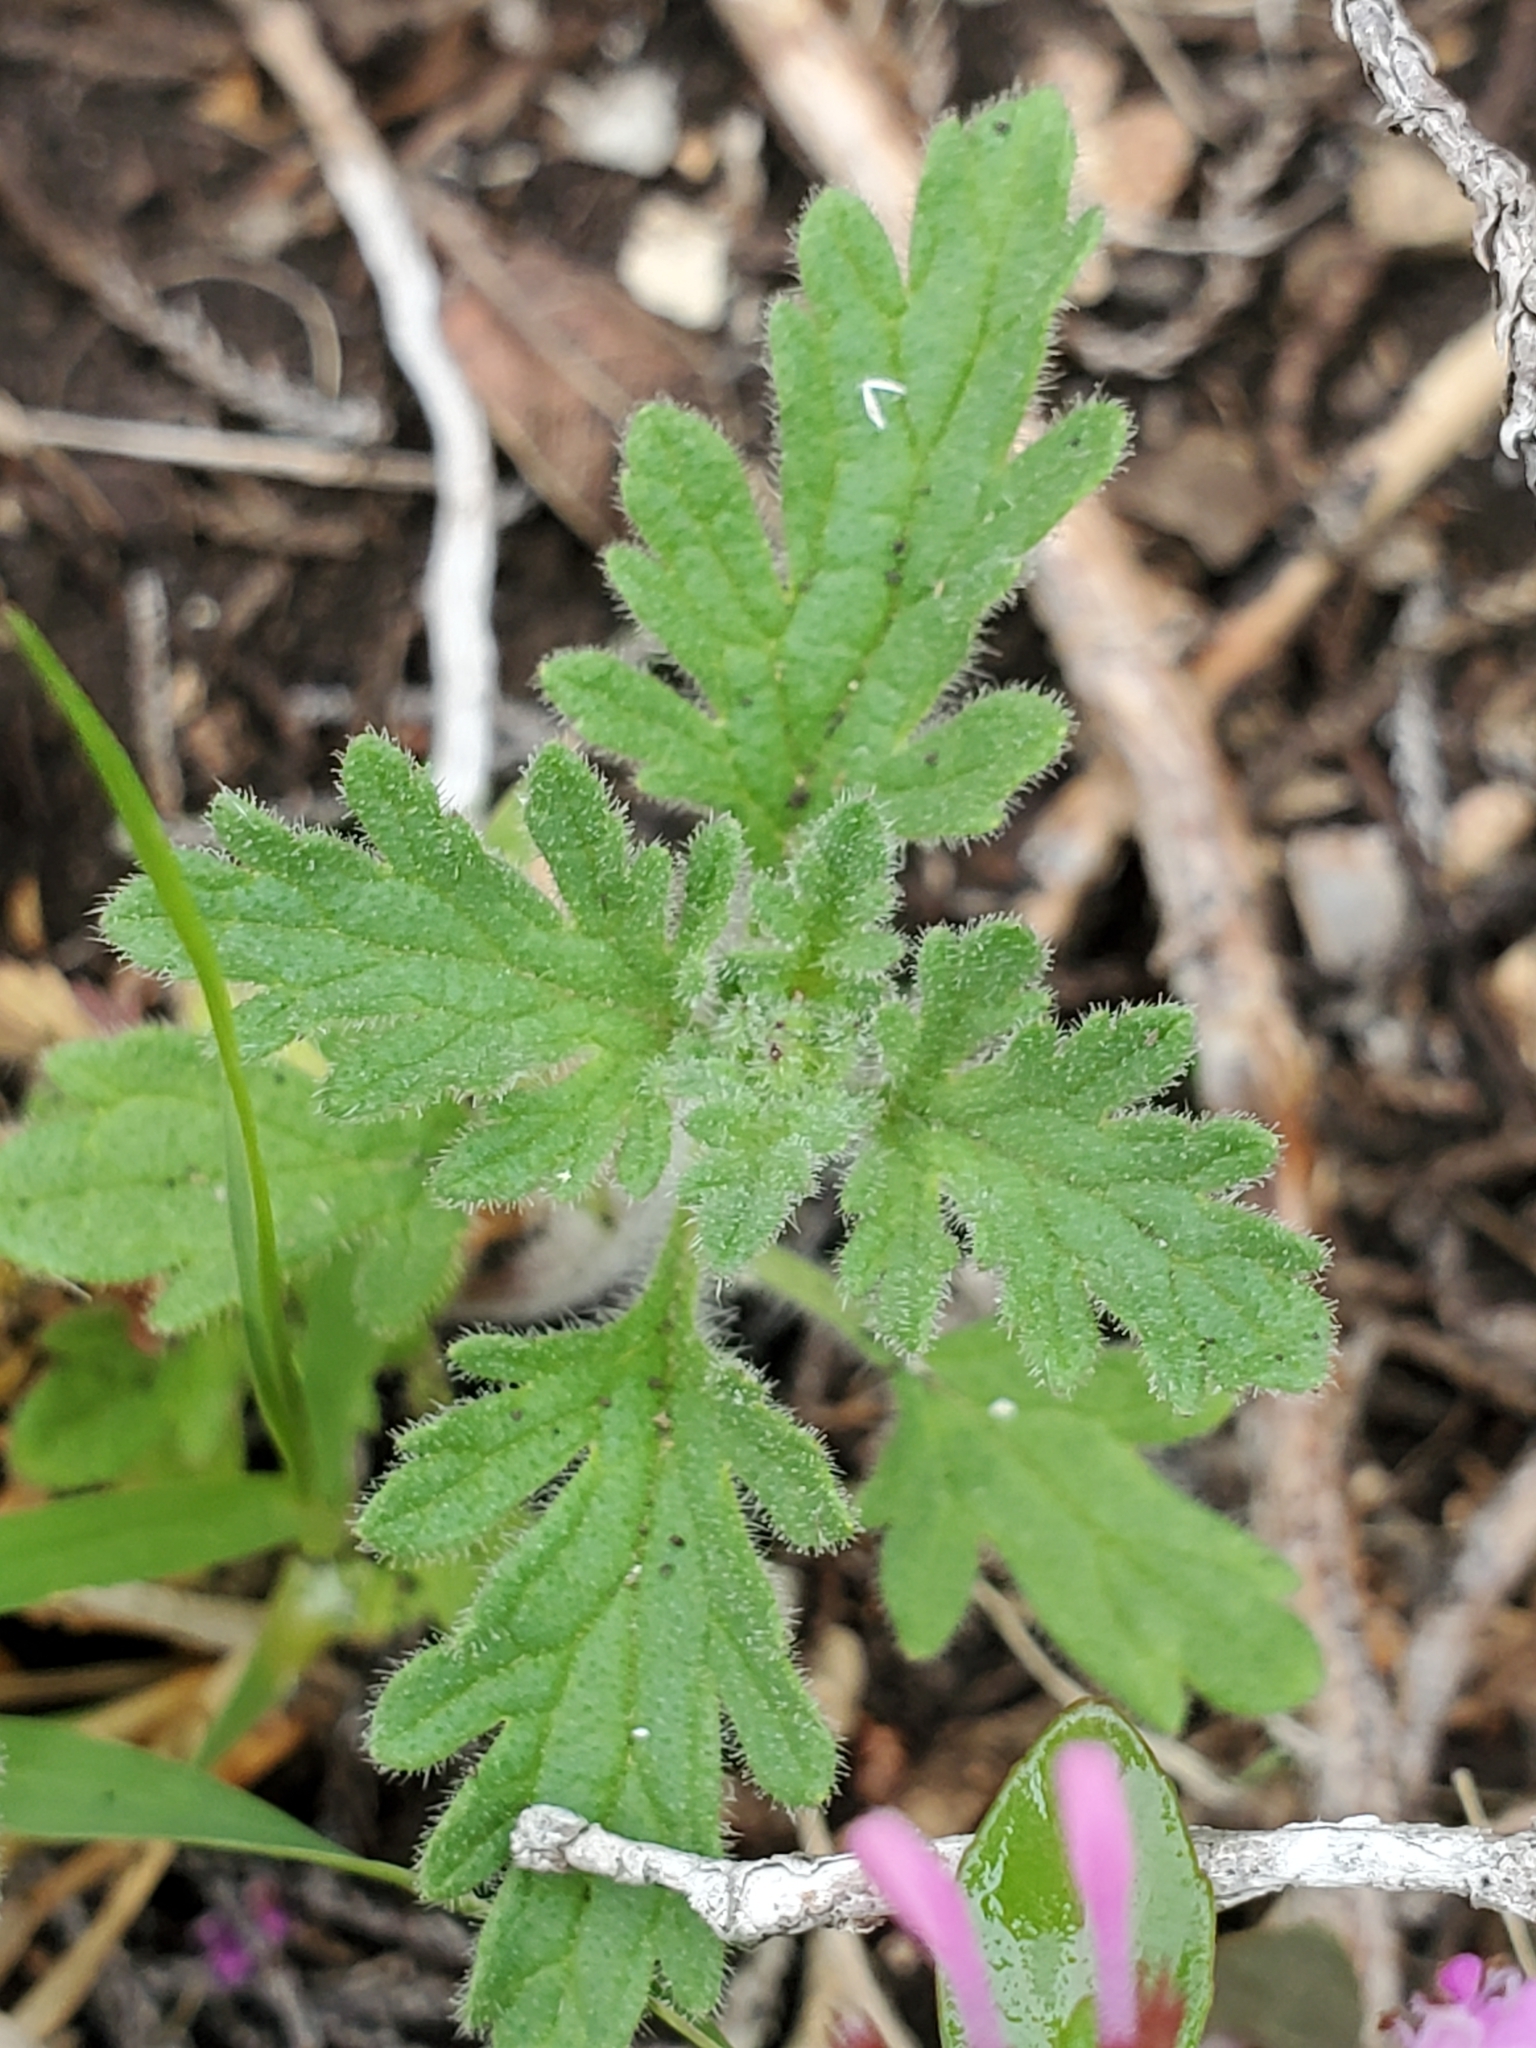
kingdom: Plantae
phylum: Tracheophyta
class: Magnoliopsida
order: Lamiales
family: Verbenaceae
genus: Verbena
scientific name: Verbena tumidula
